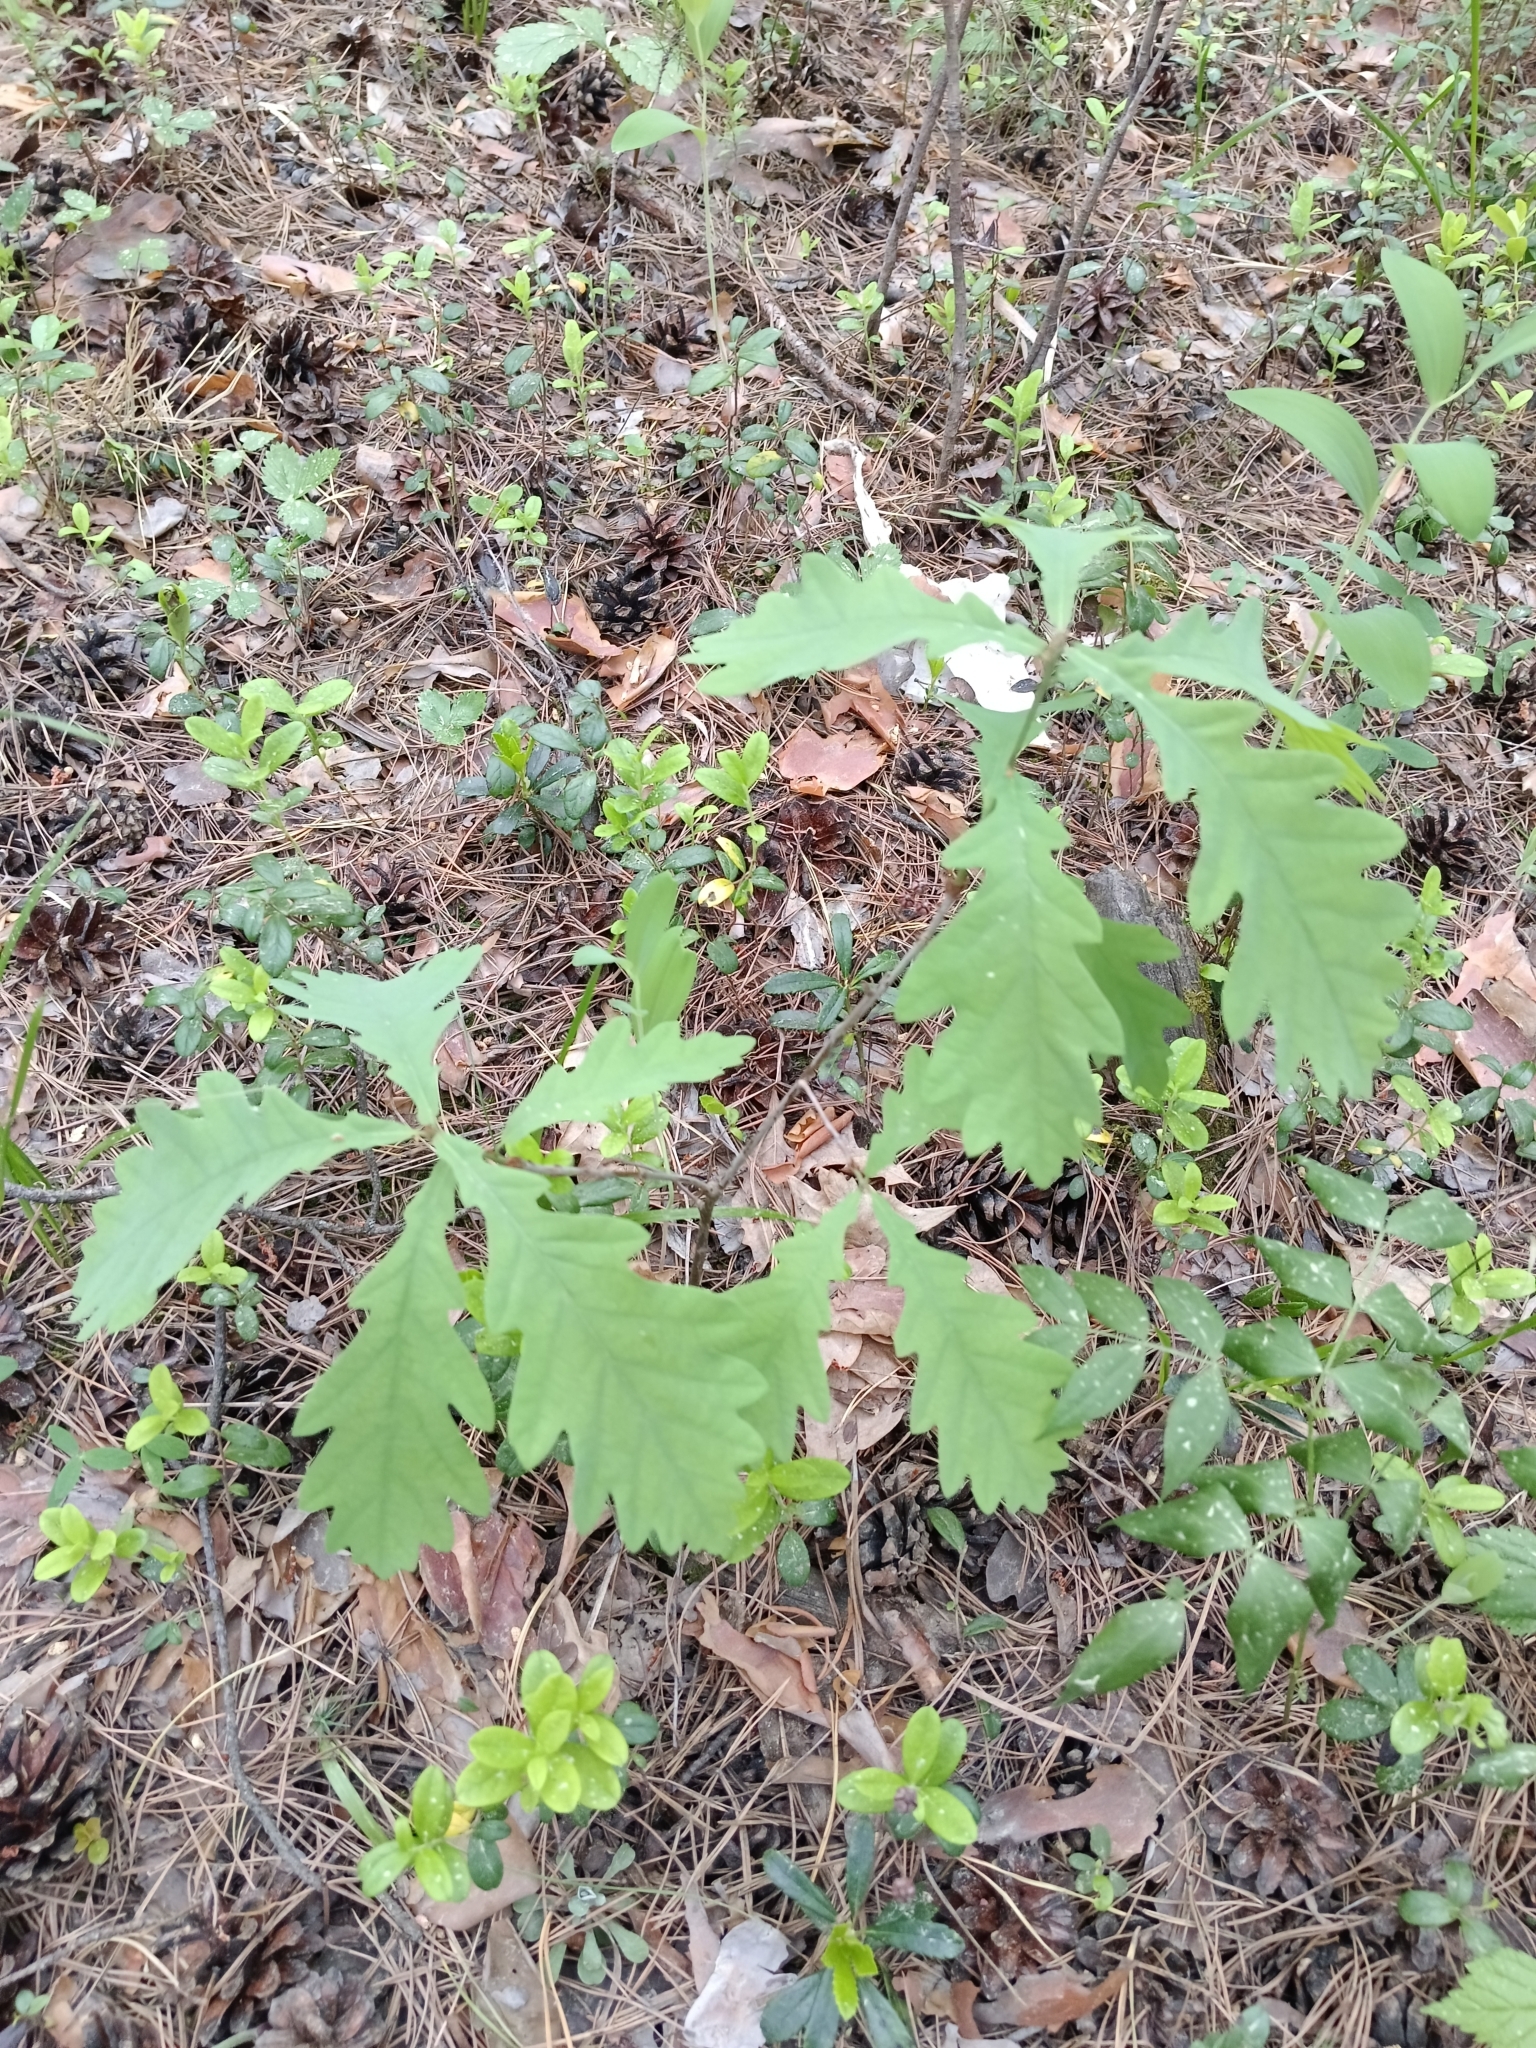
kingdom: Plantae
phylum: Tracheophyta
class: Magnoliopsida
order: Fagales
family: Fagaceae
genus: Quercus
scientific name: Quercus robur
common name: Pedunculate oak
